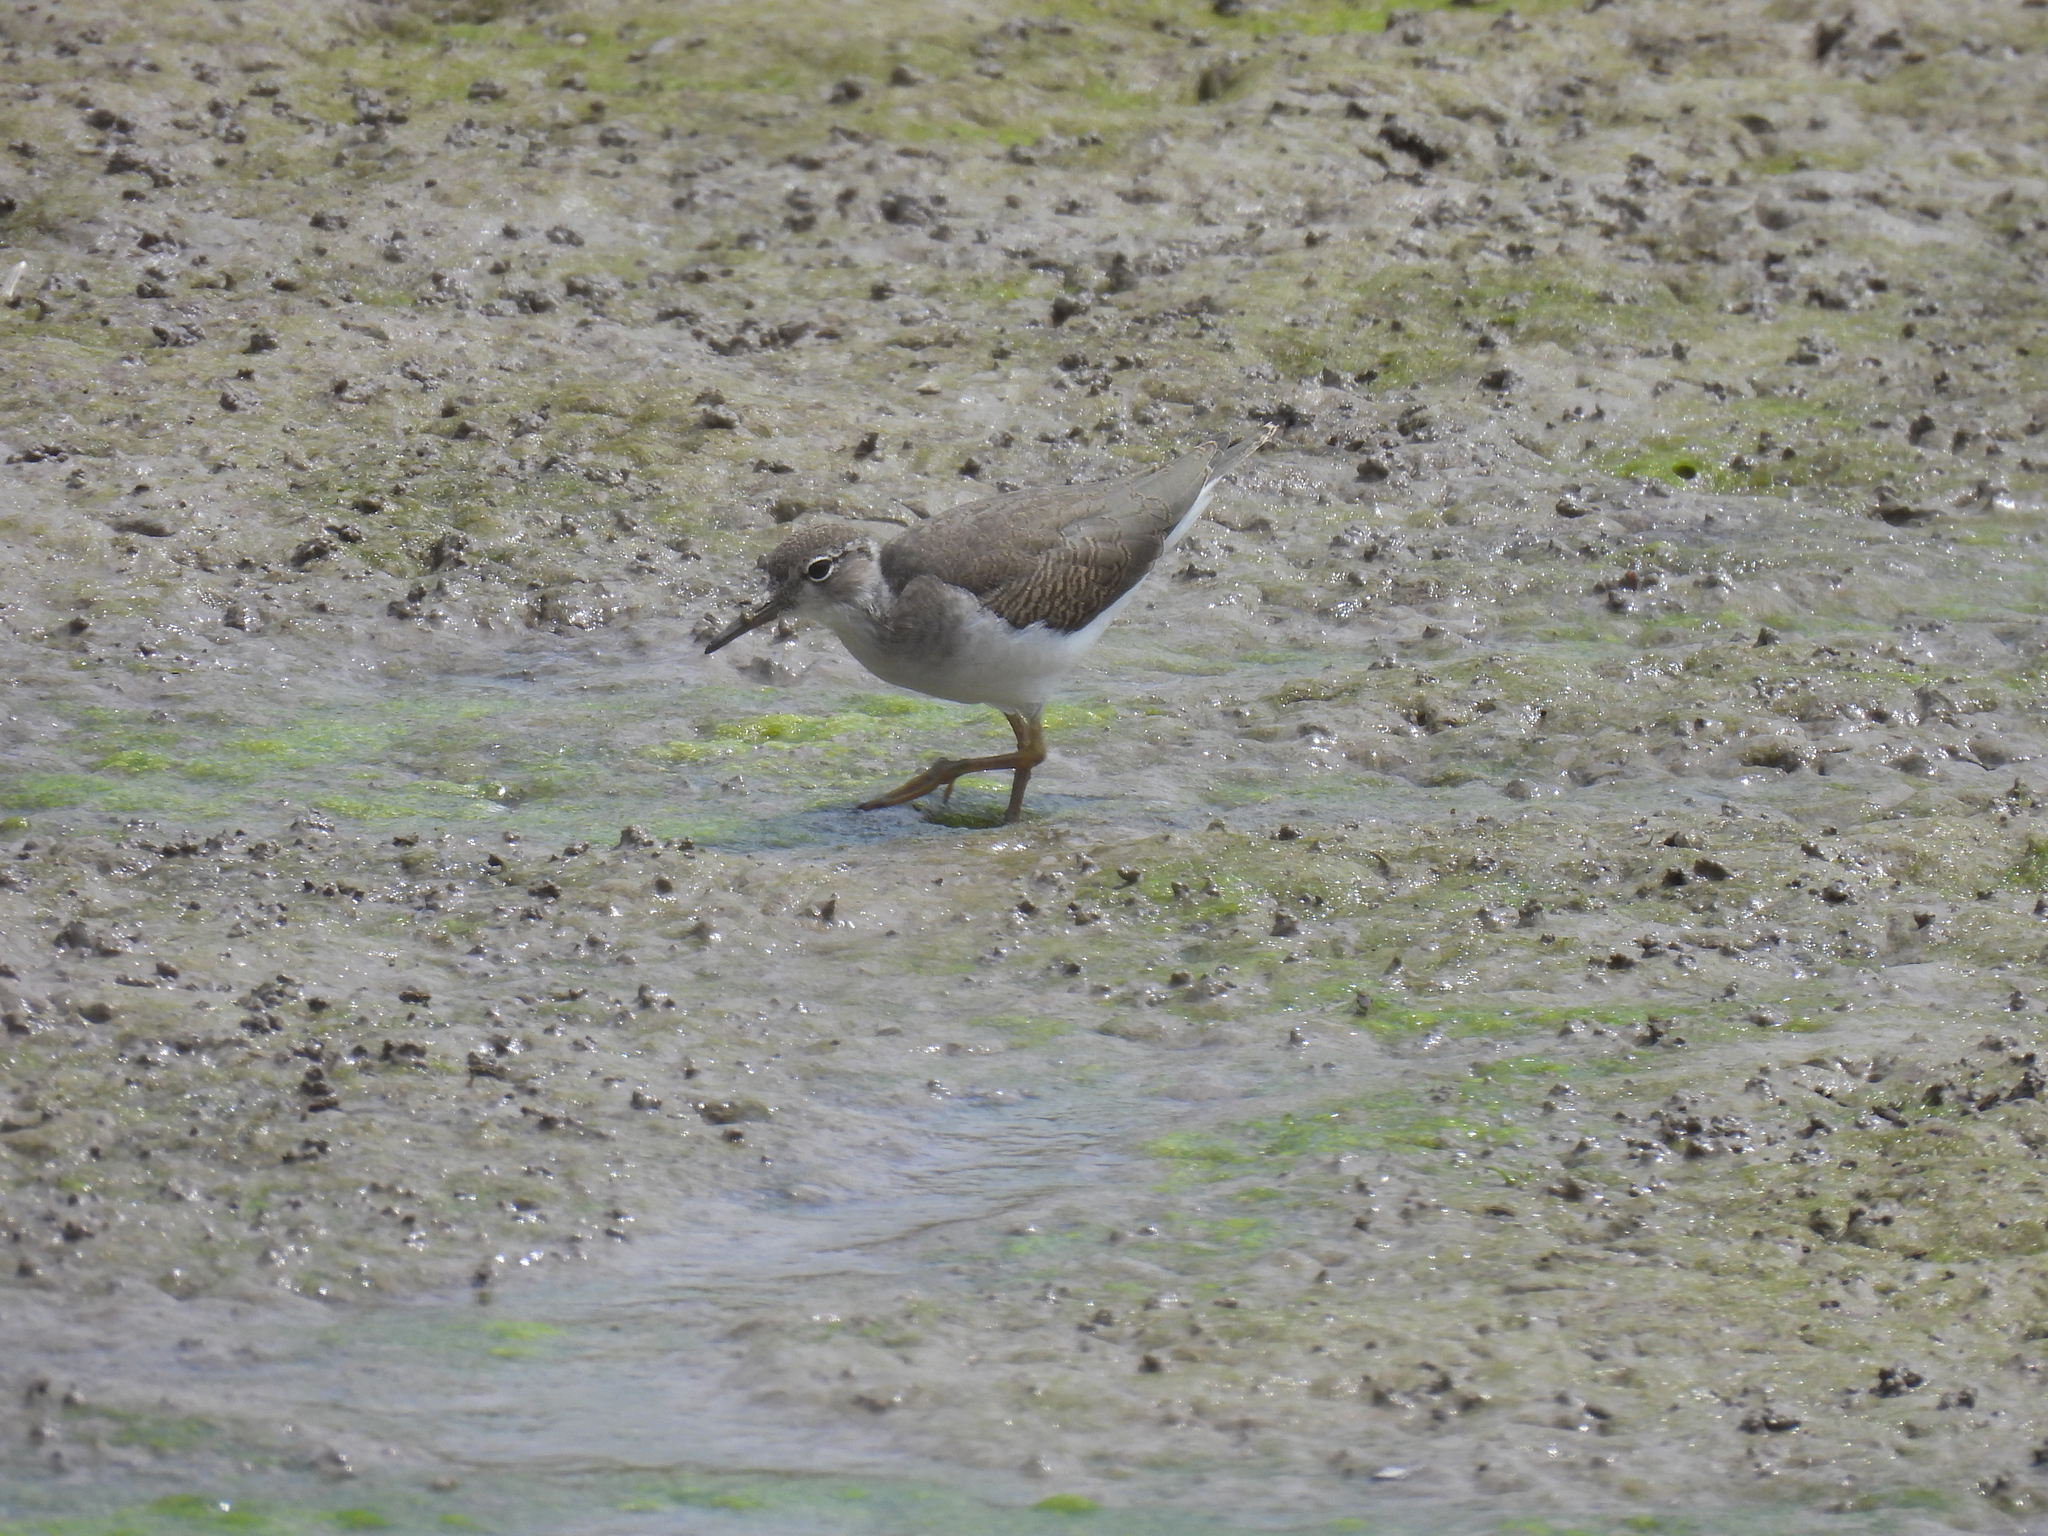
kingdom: Animalia
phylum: Chordata
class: Aves
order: Charadriiformes
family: Scolopacidae
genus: Actitis
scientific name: Actitis macularius
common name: Spotted sandpiper
